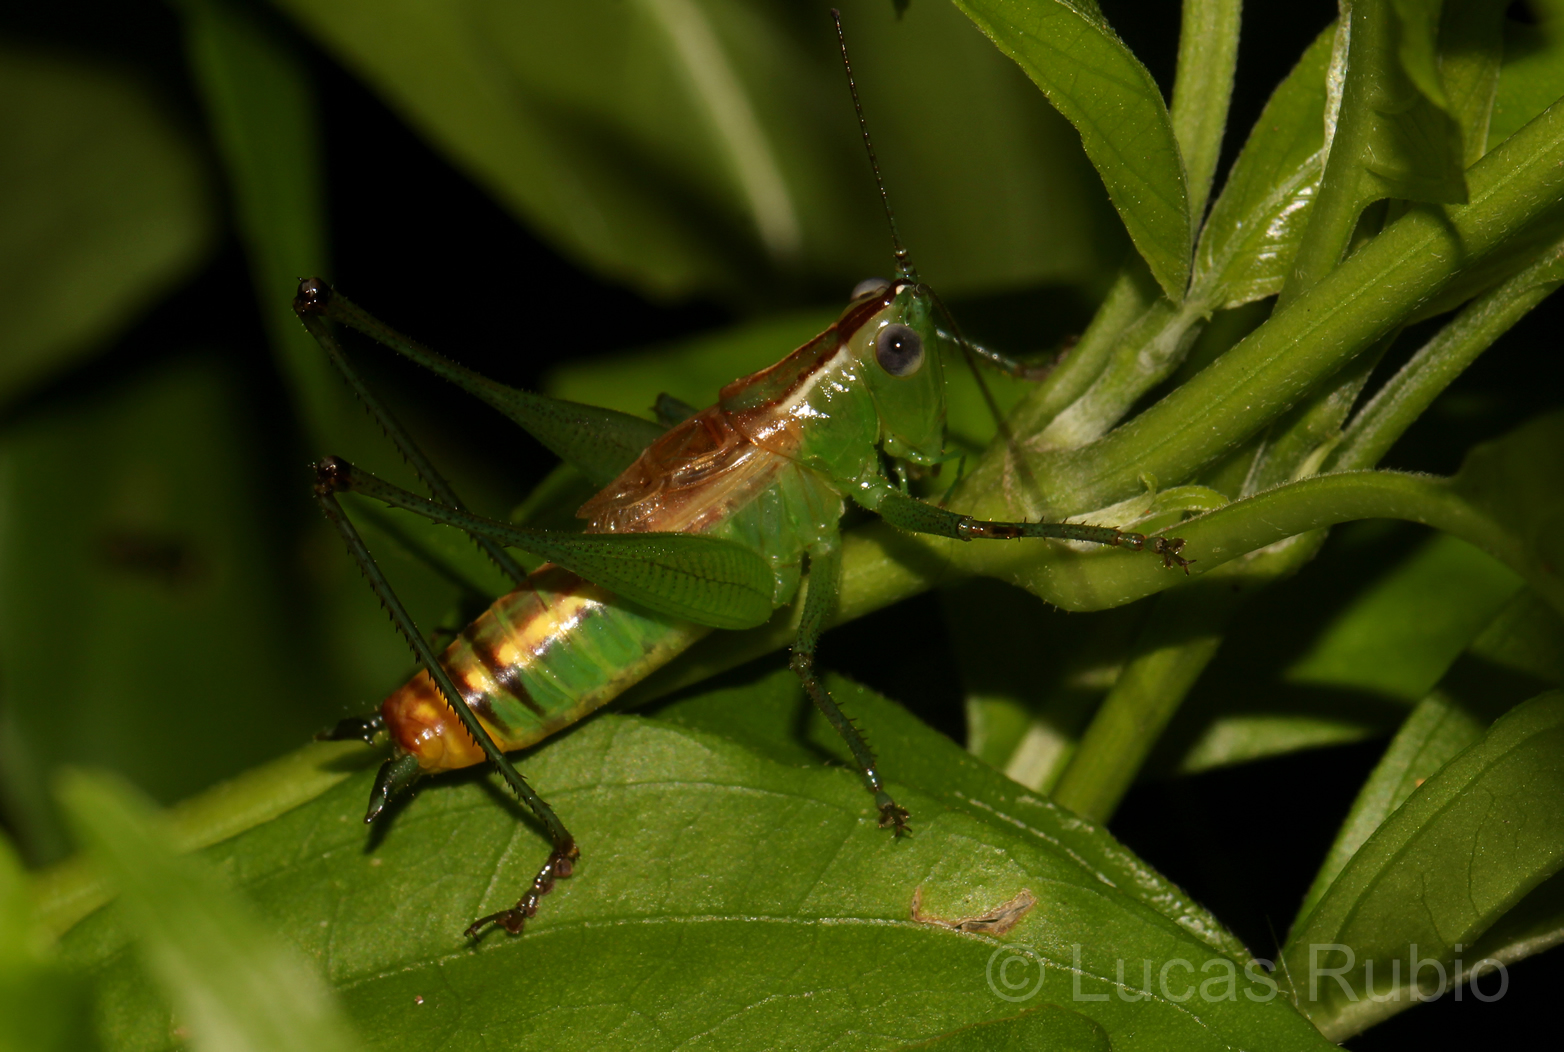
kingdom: Animalia
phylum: Arthropoda
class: Insecta
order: Orthoptera
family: Tettigoniidae
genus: Conocephalus
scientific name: Conocephalus ochrotelus
